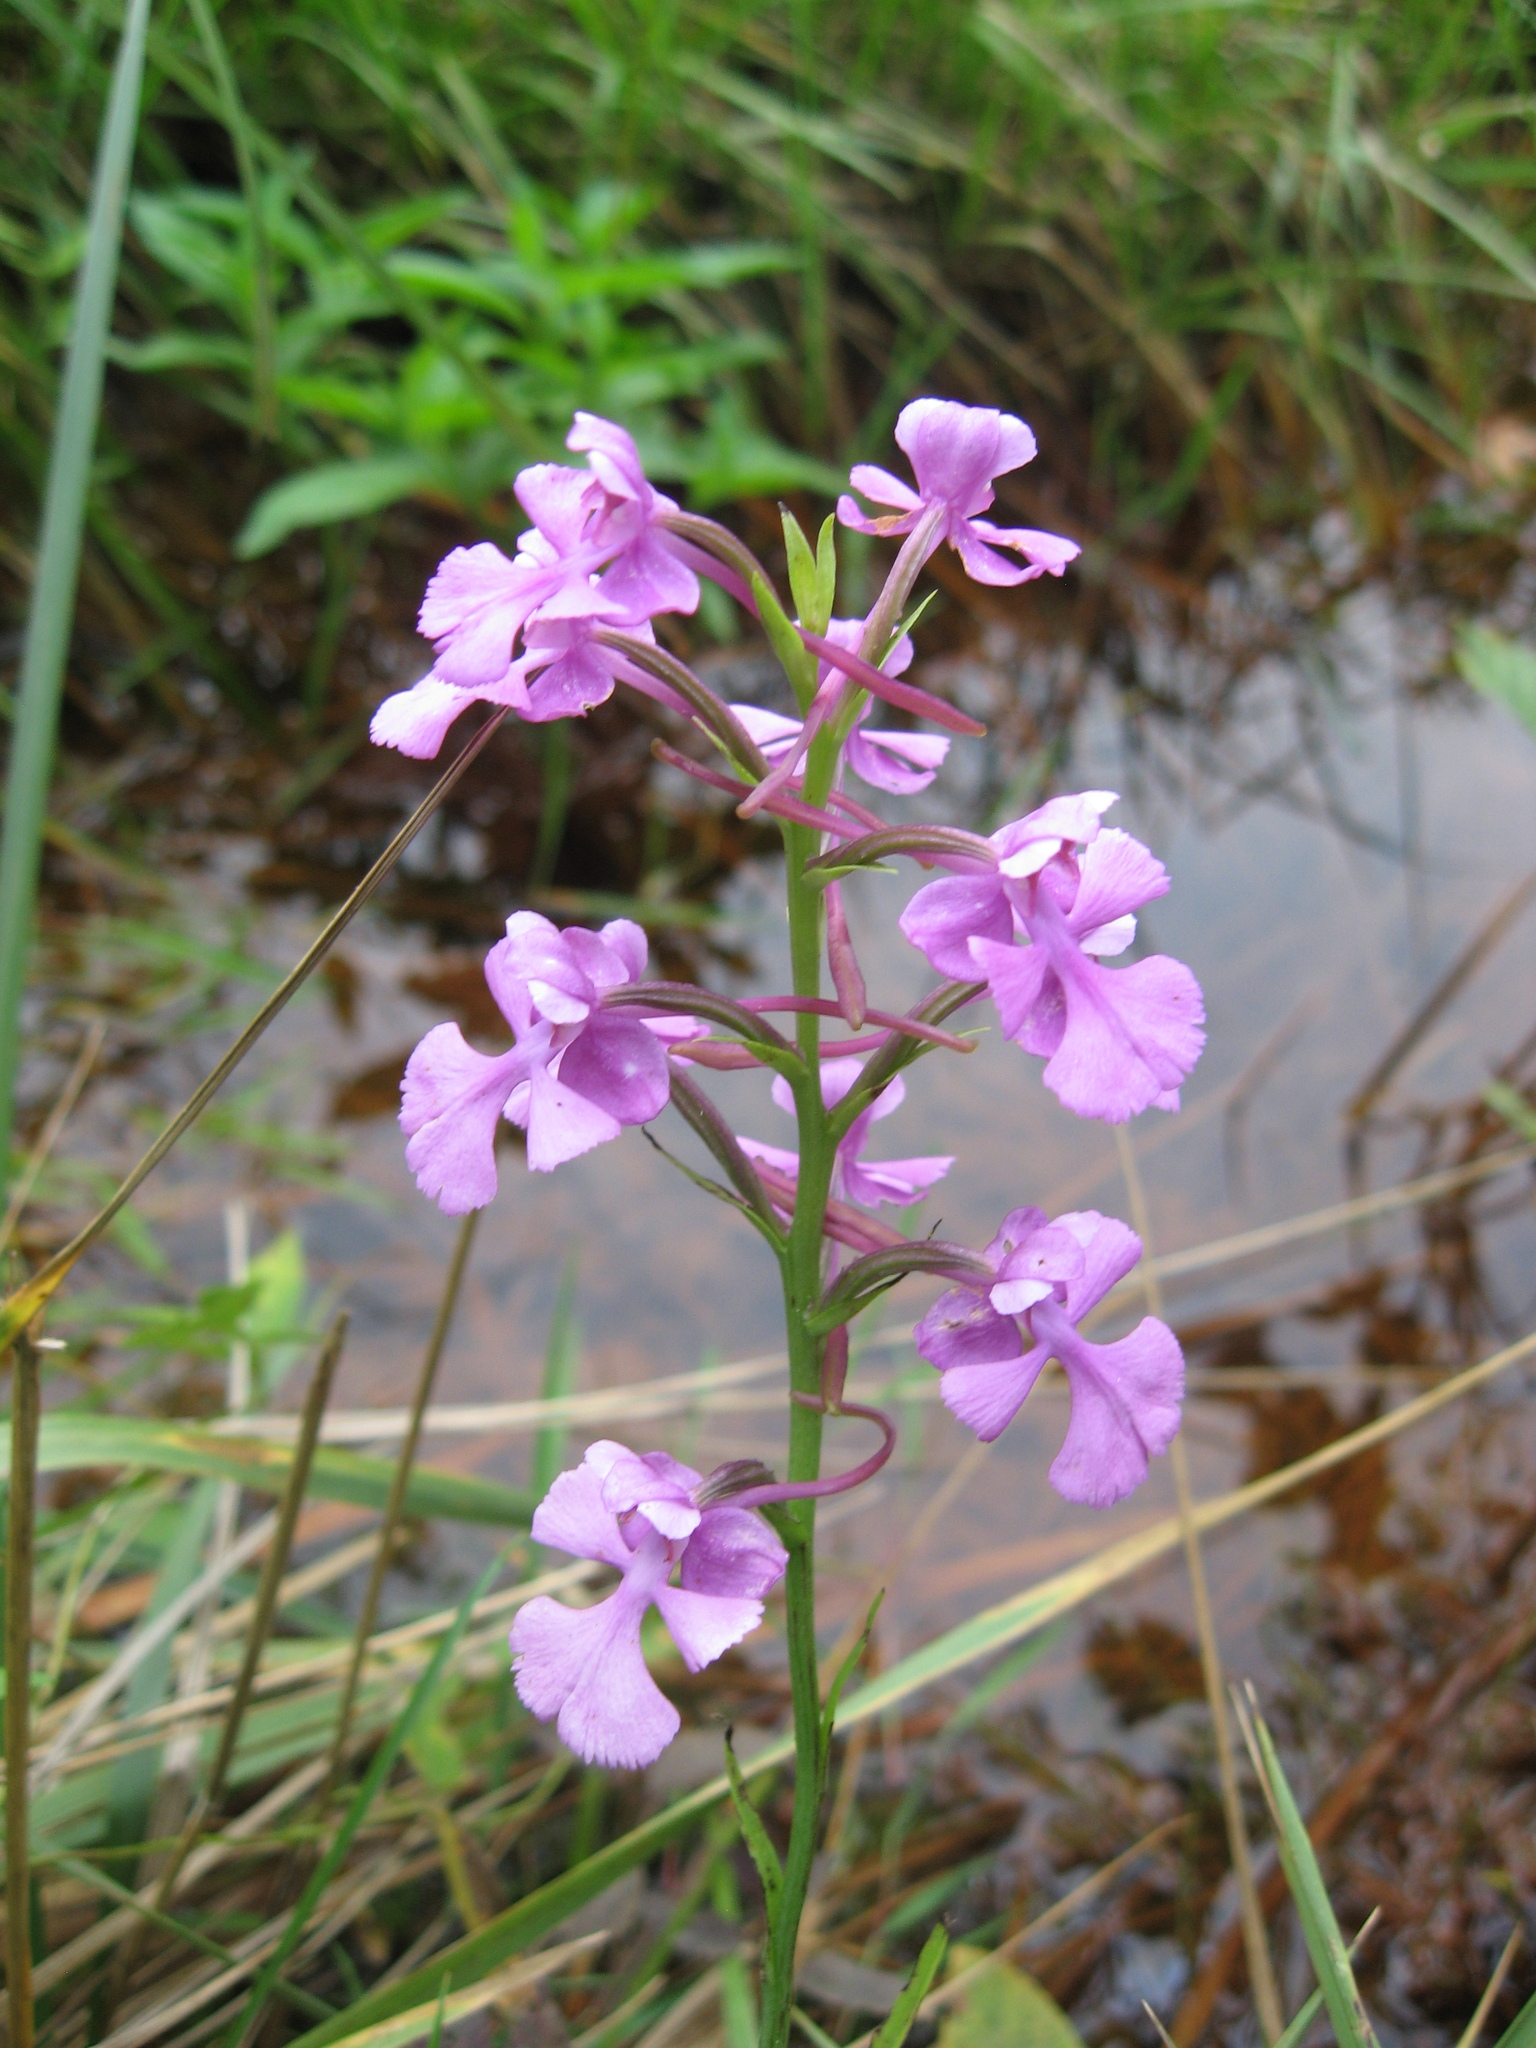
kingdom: Plantae
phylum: Tracheophyta
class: Liliopsida
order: Asparagales
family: Orchidaceae
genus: Platanthera
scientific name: Platanthera peramoena
